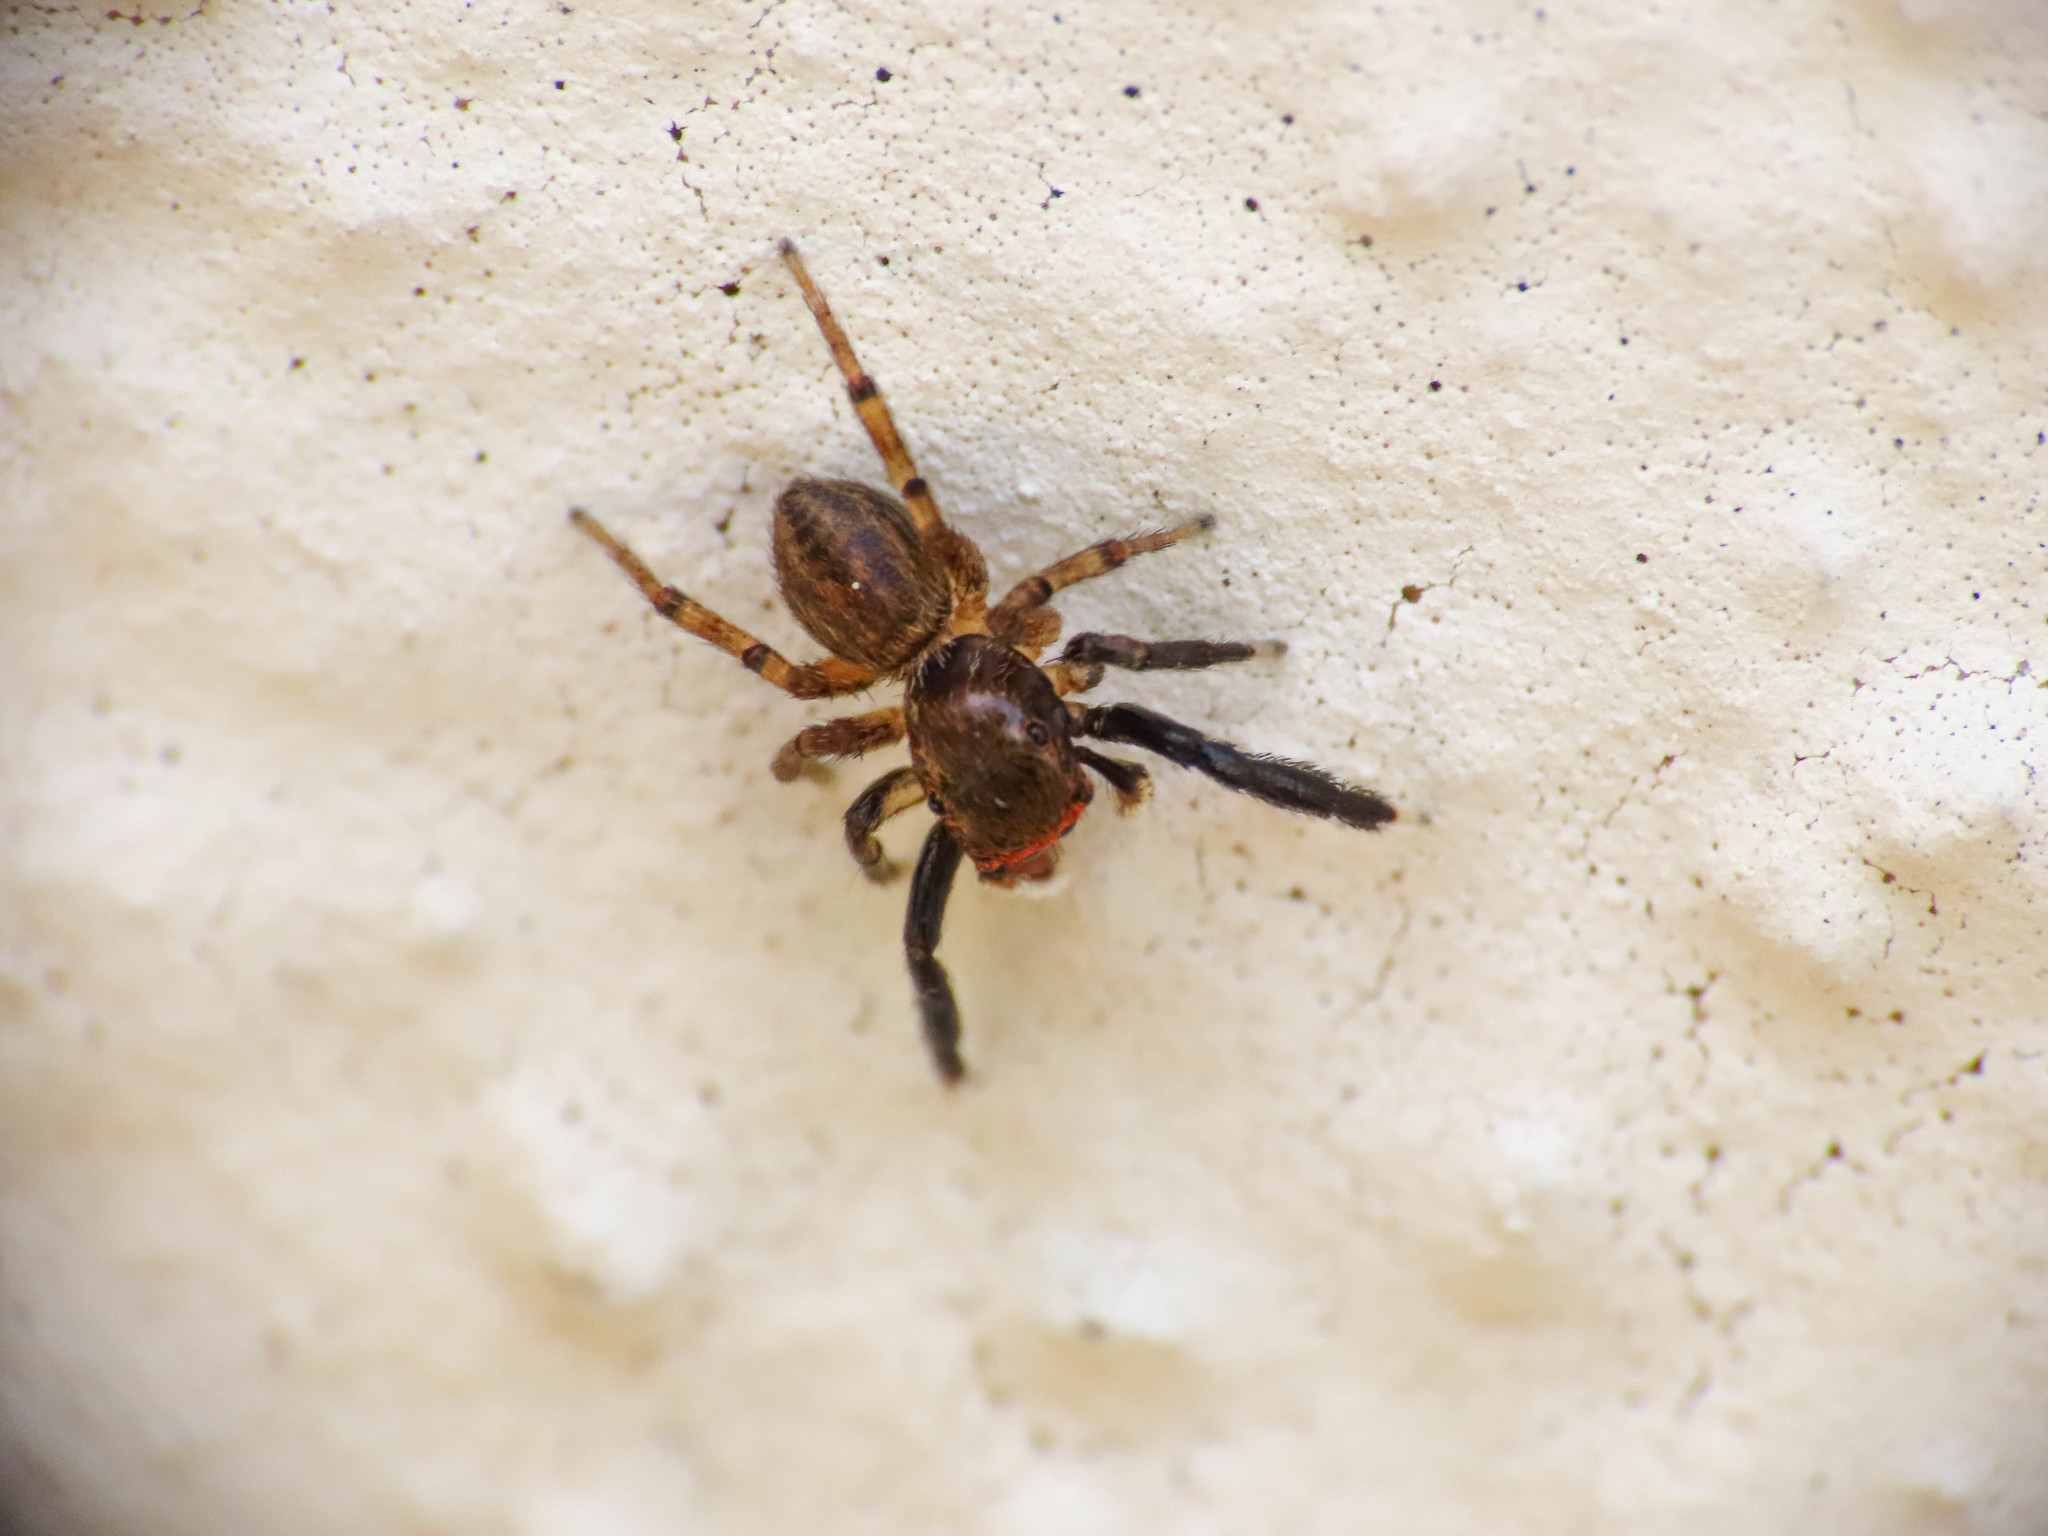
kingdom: Animalia
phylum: Arthropoda
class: Arachnida
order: Araneae
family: Salticidae
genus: Euophrys
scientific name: Euophrys frontalis
